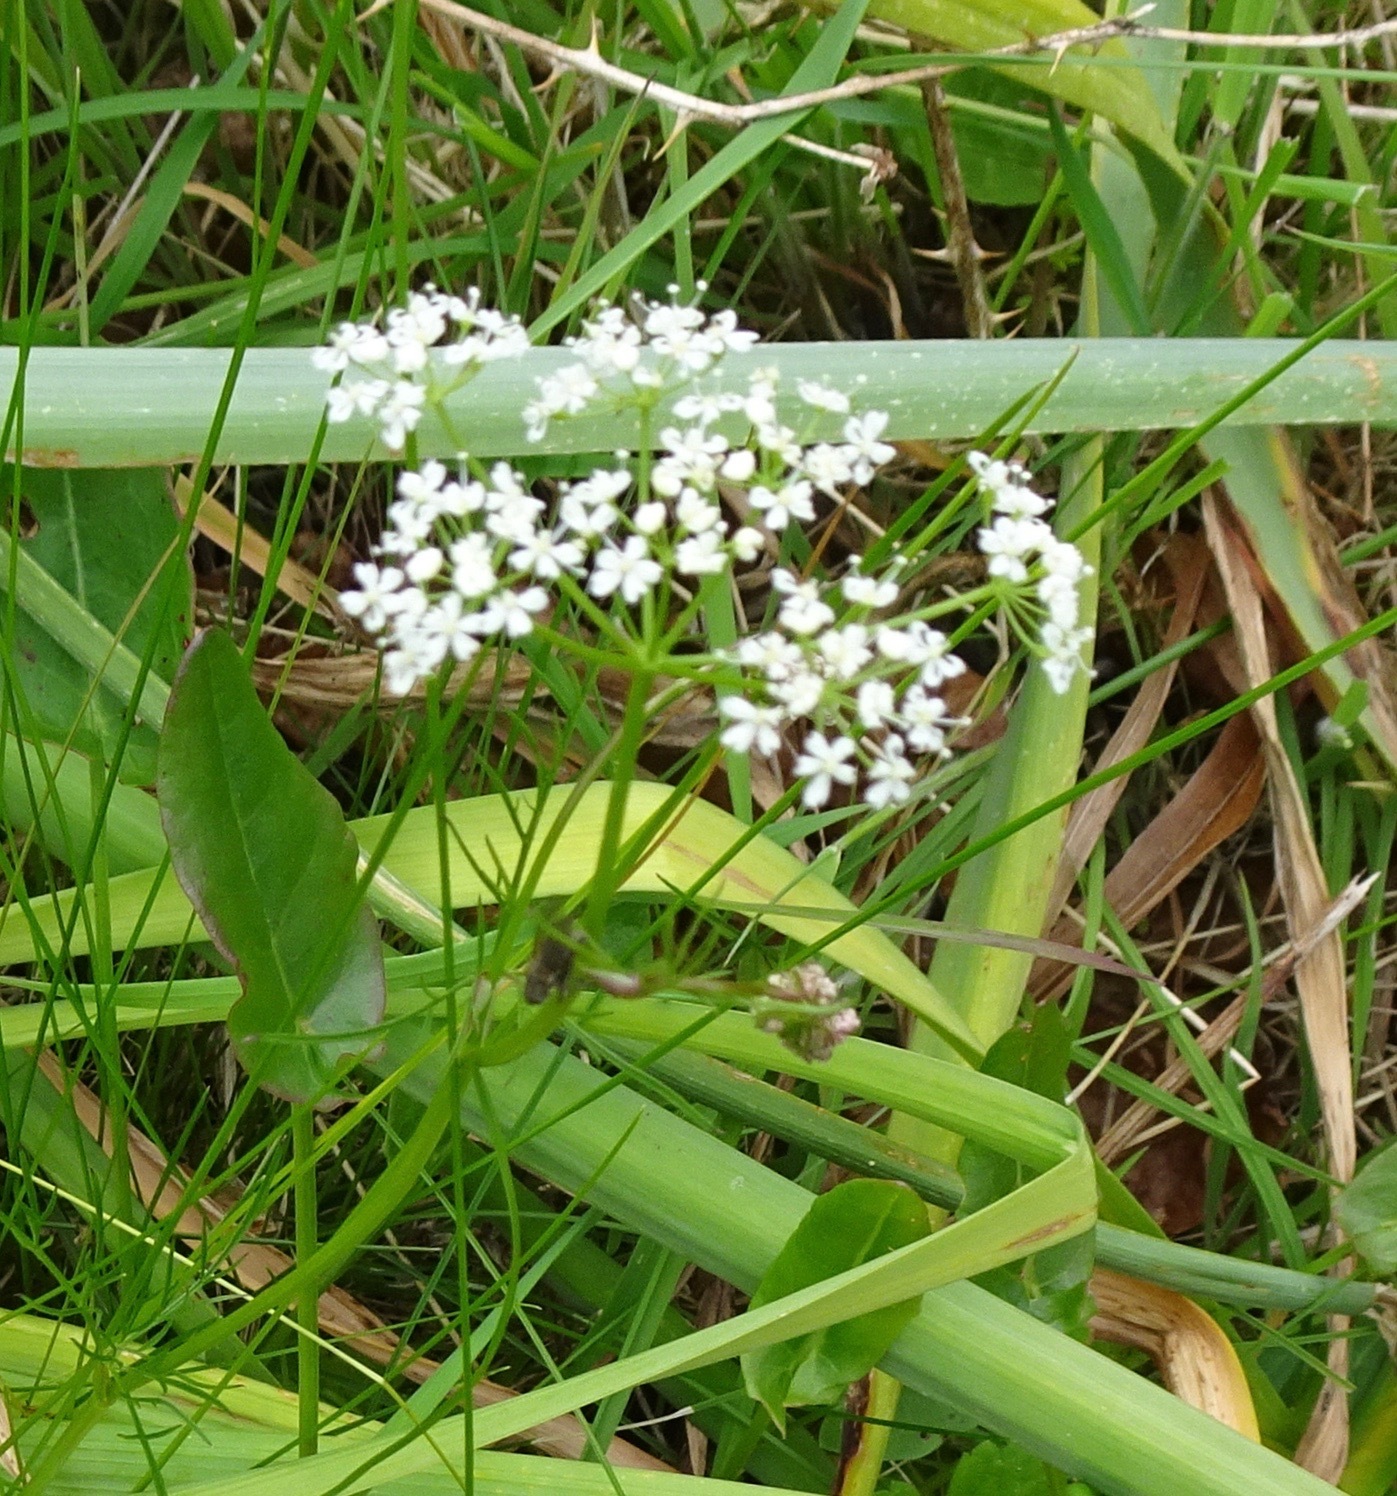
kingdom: Plantae
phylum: Tracheophyta
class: Magnoliopsida
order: Apiales
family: Apiaceae
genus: Conopodium
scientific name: Conopodium majus
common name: Pignut
